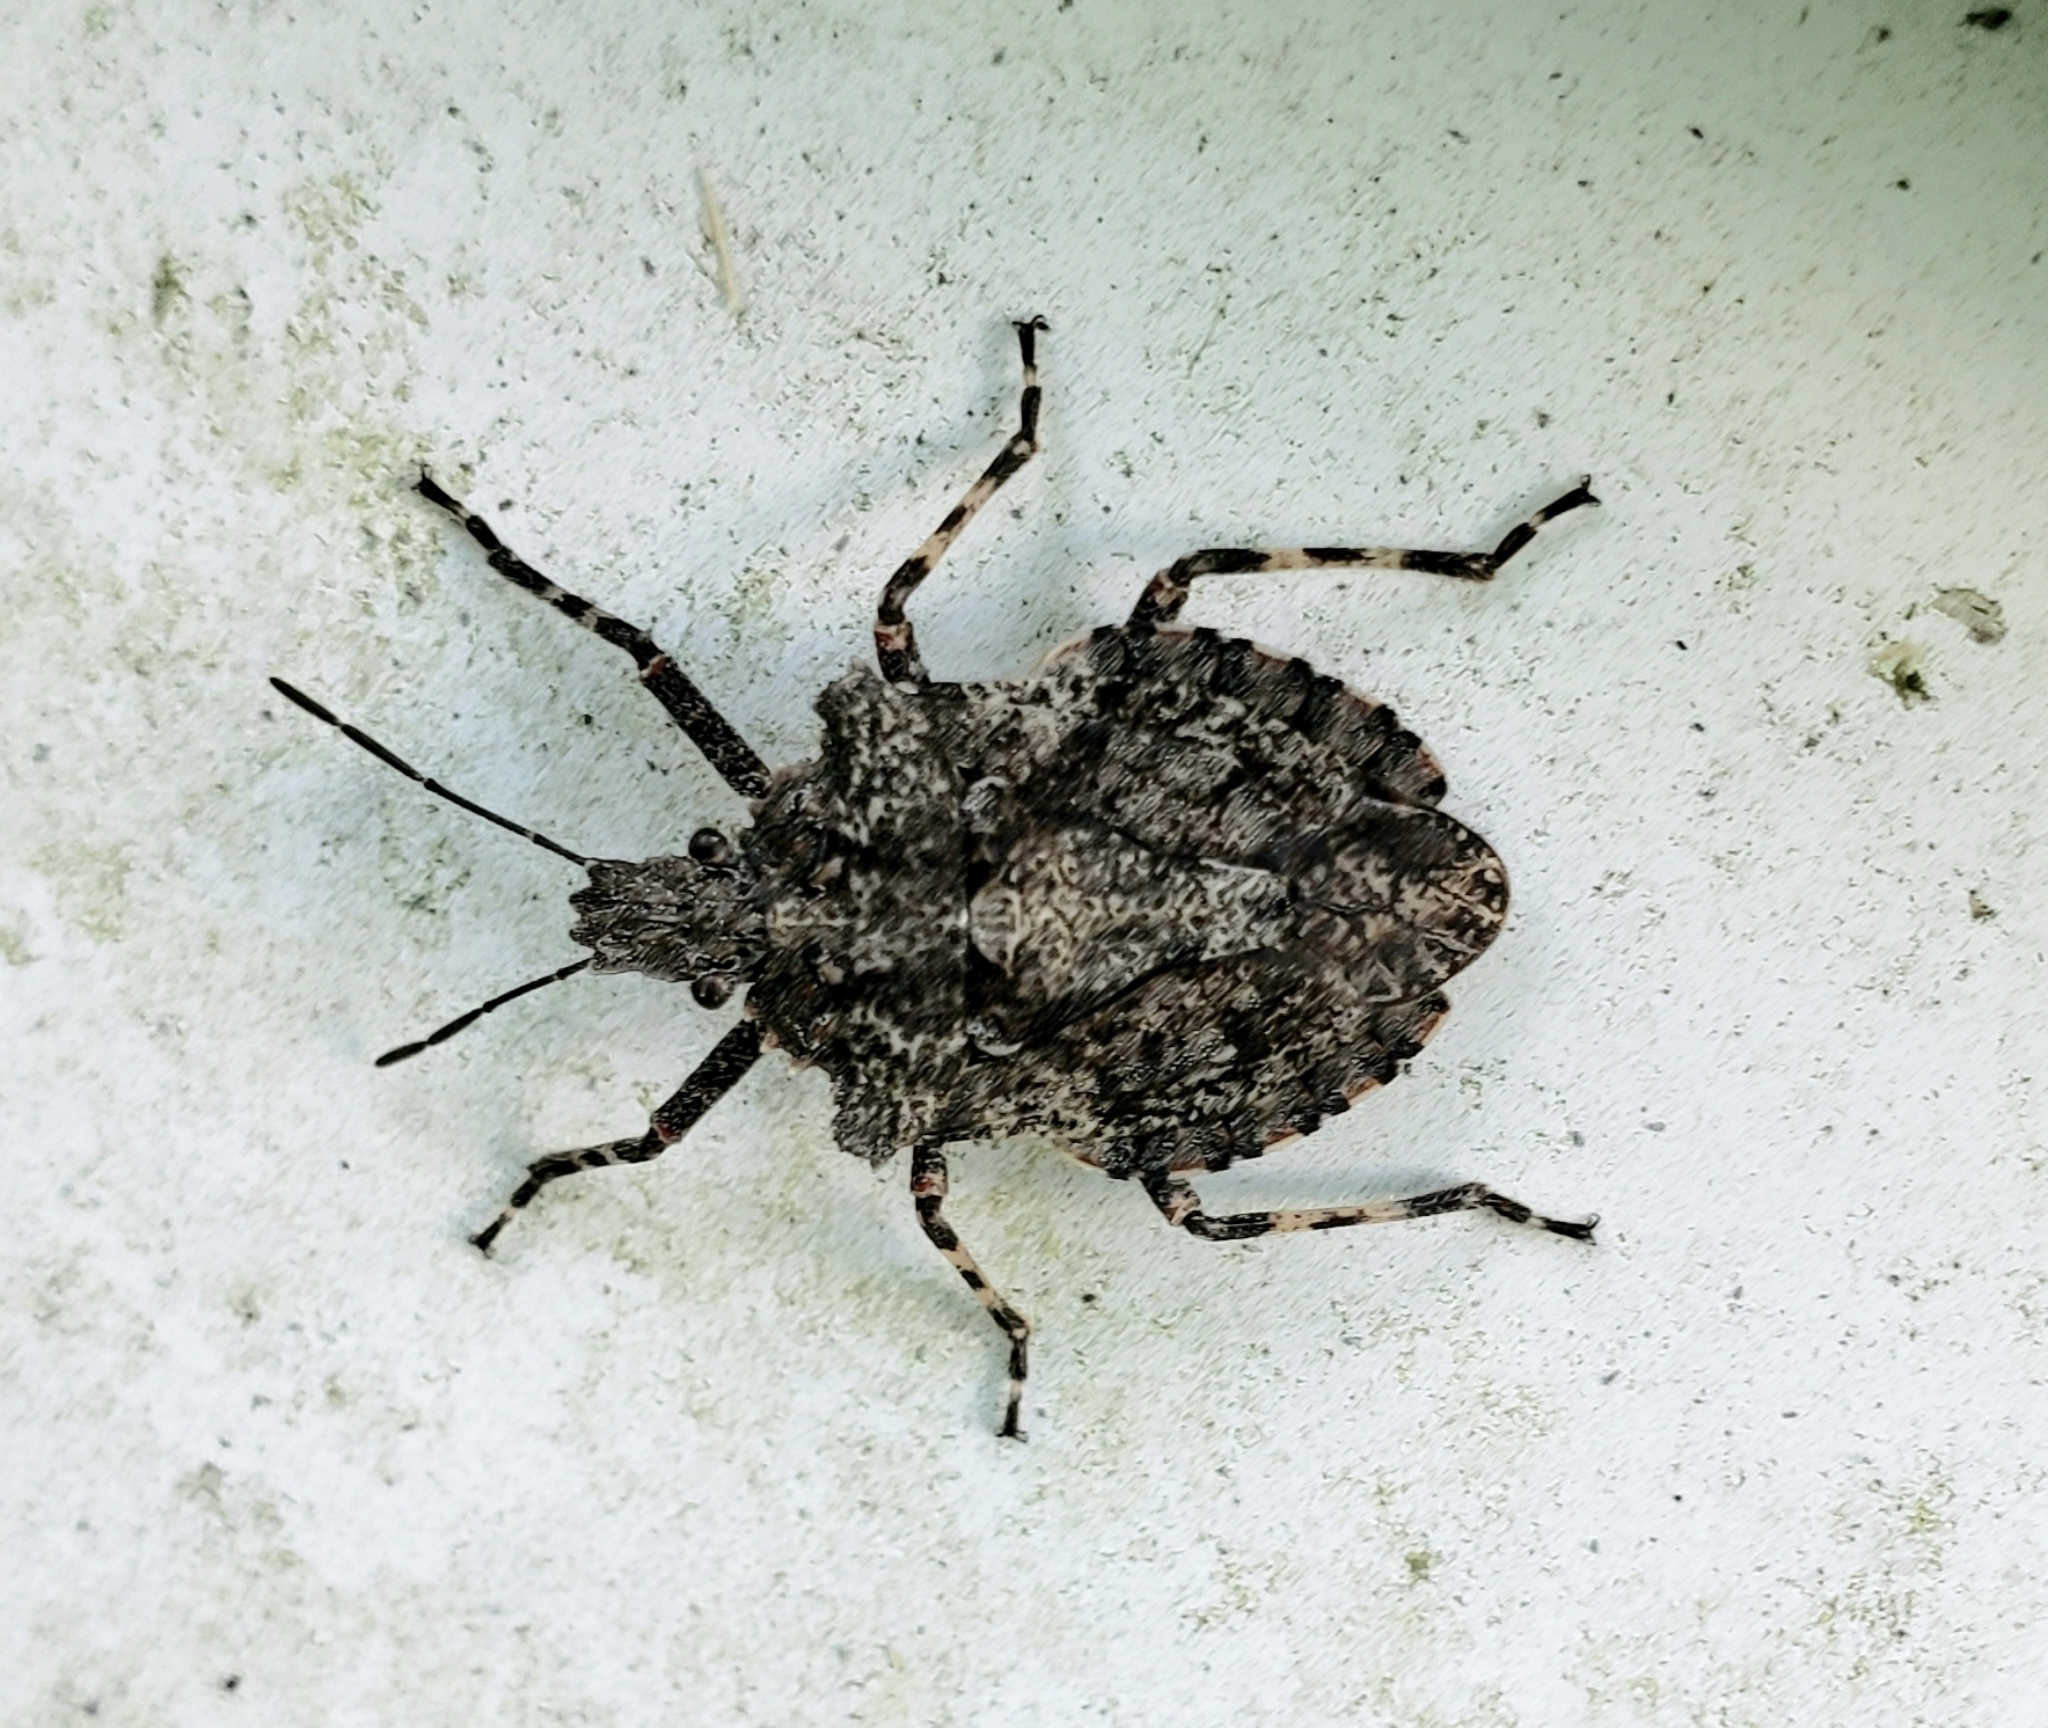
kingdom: Animalia
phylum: Arthropoda
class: Insecta
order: Hemiptera
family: Pentatomidae
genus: Brochymena
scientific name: Brochymena arborea
